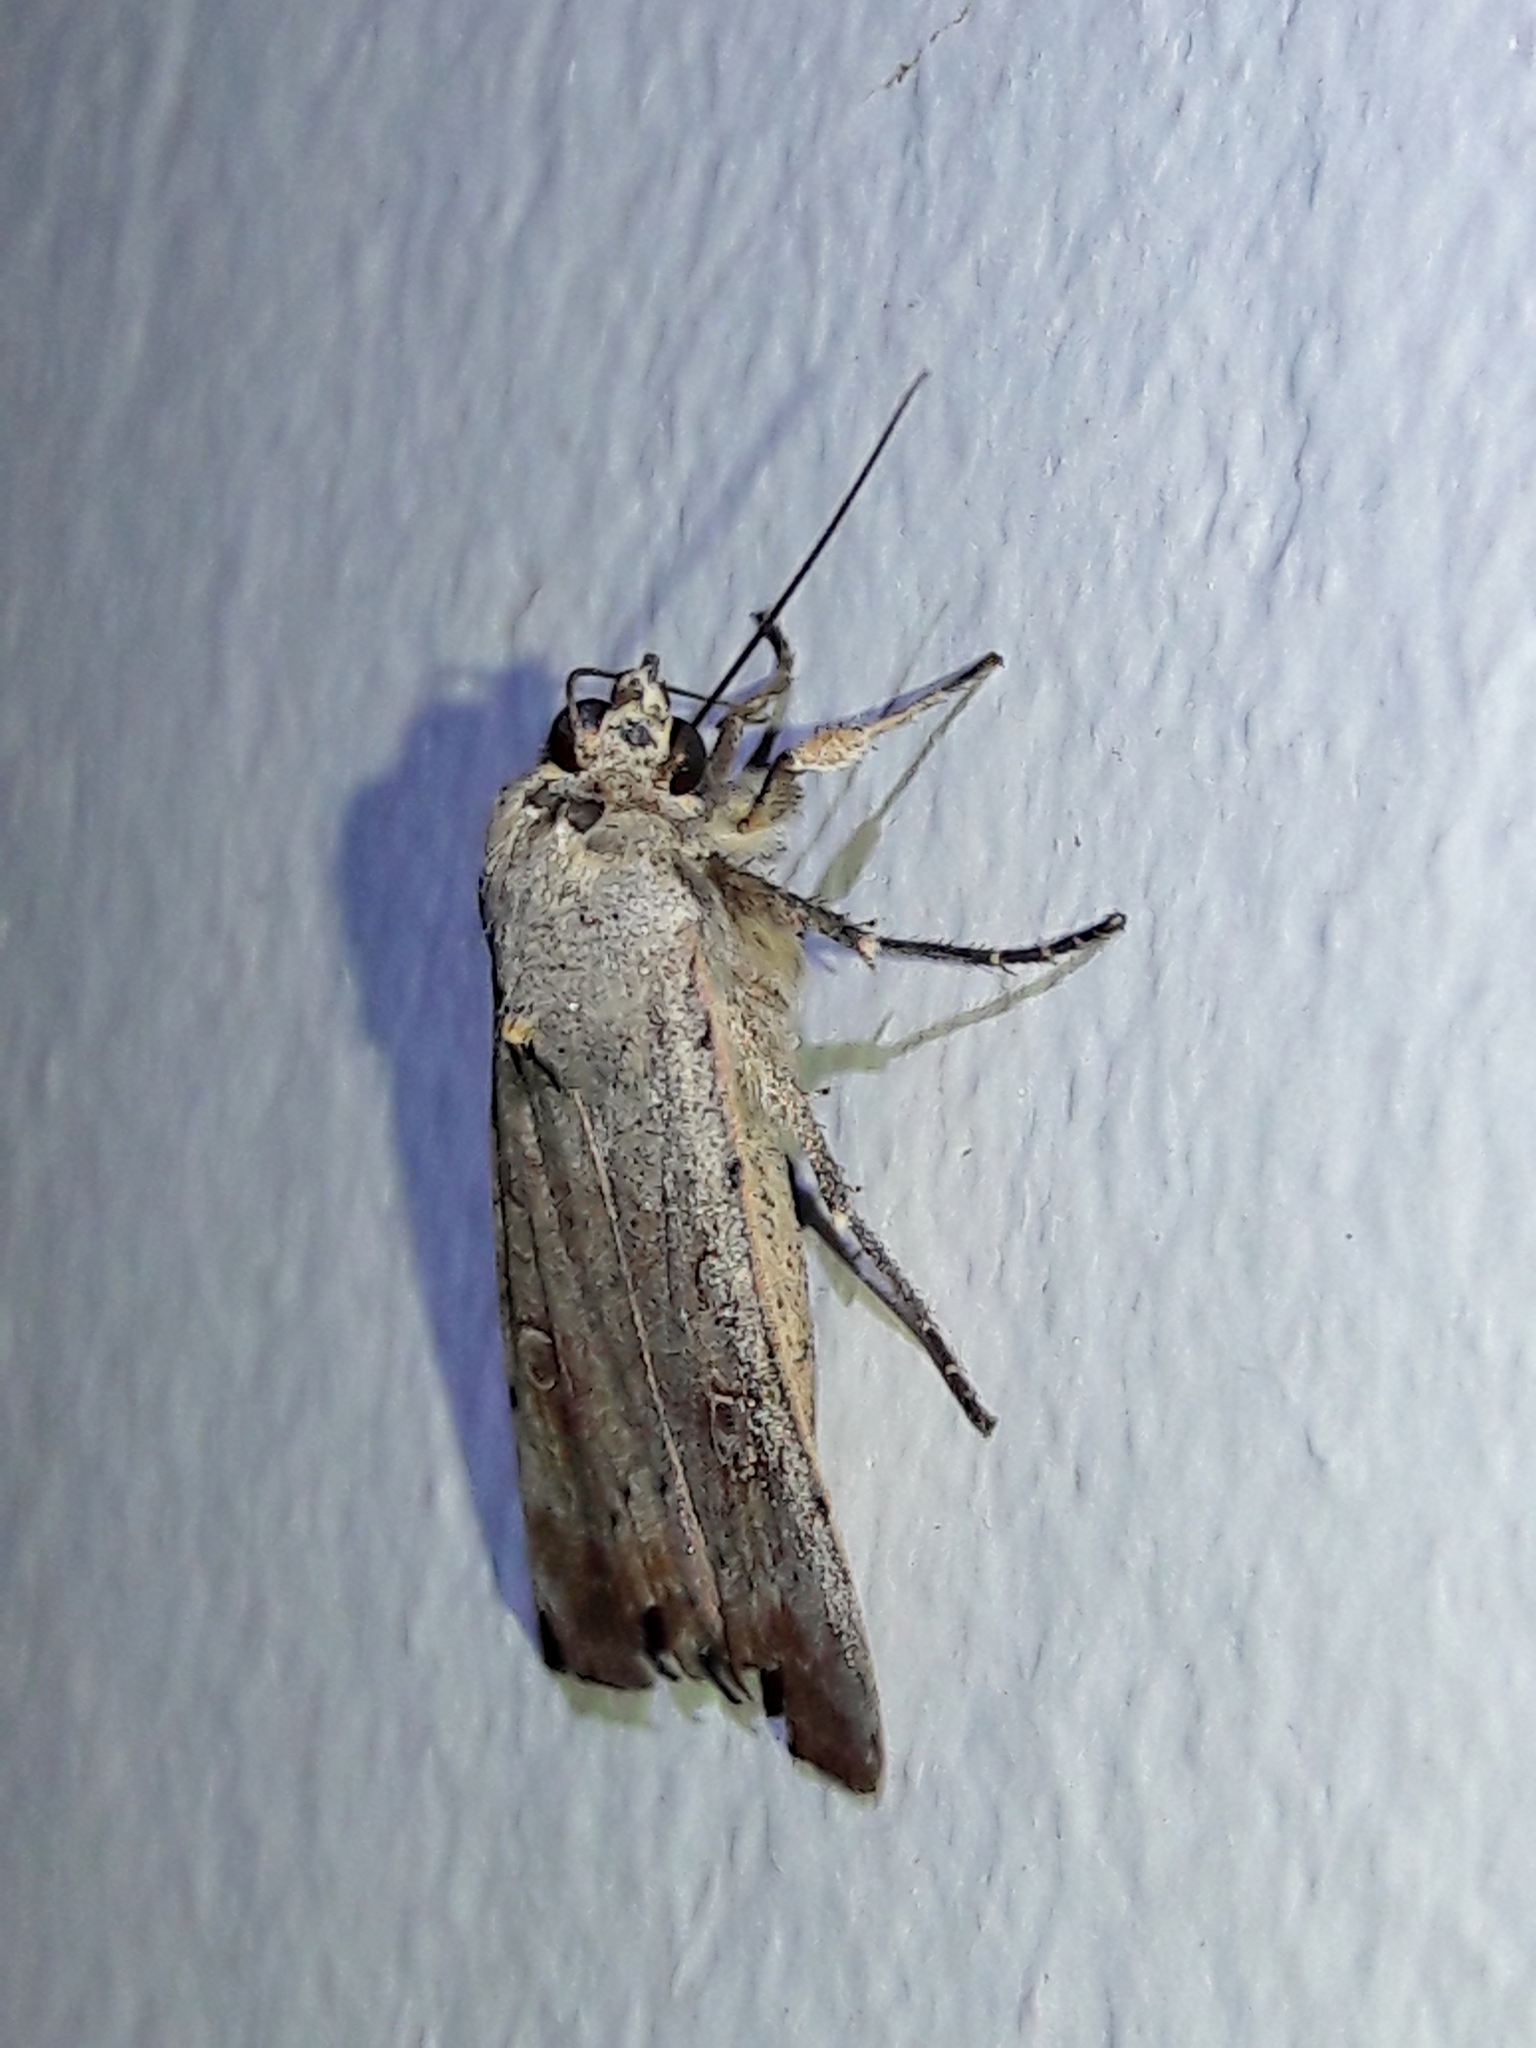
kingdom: Animalia
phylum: Arthropoda
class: Insecta
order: Lepidoptera
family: Noctuidae
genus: Anicla
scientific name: Anicla infecta
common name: Green cutworm
